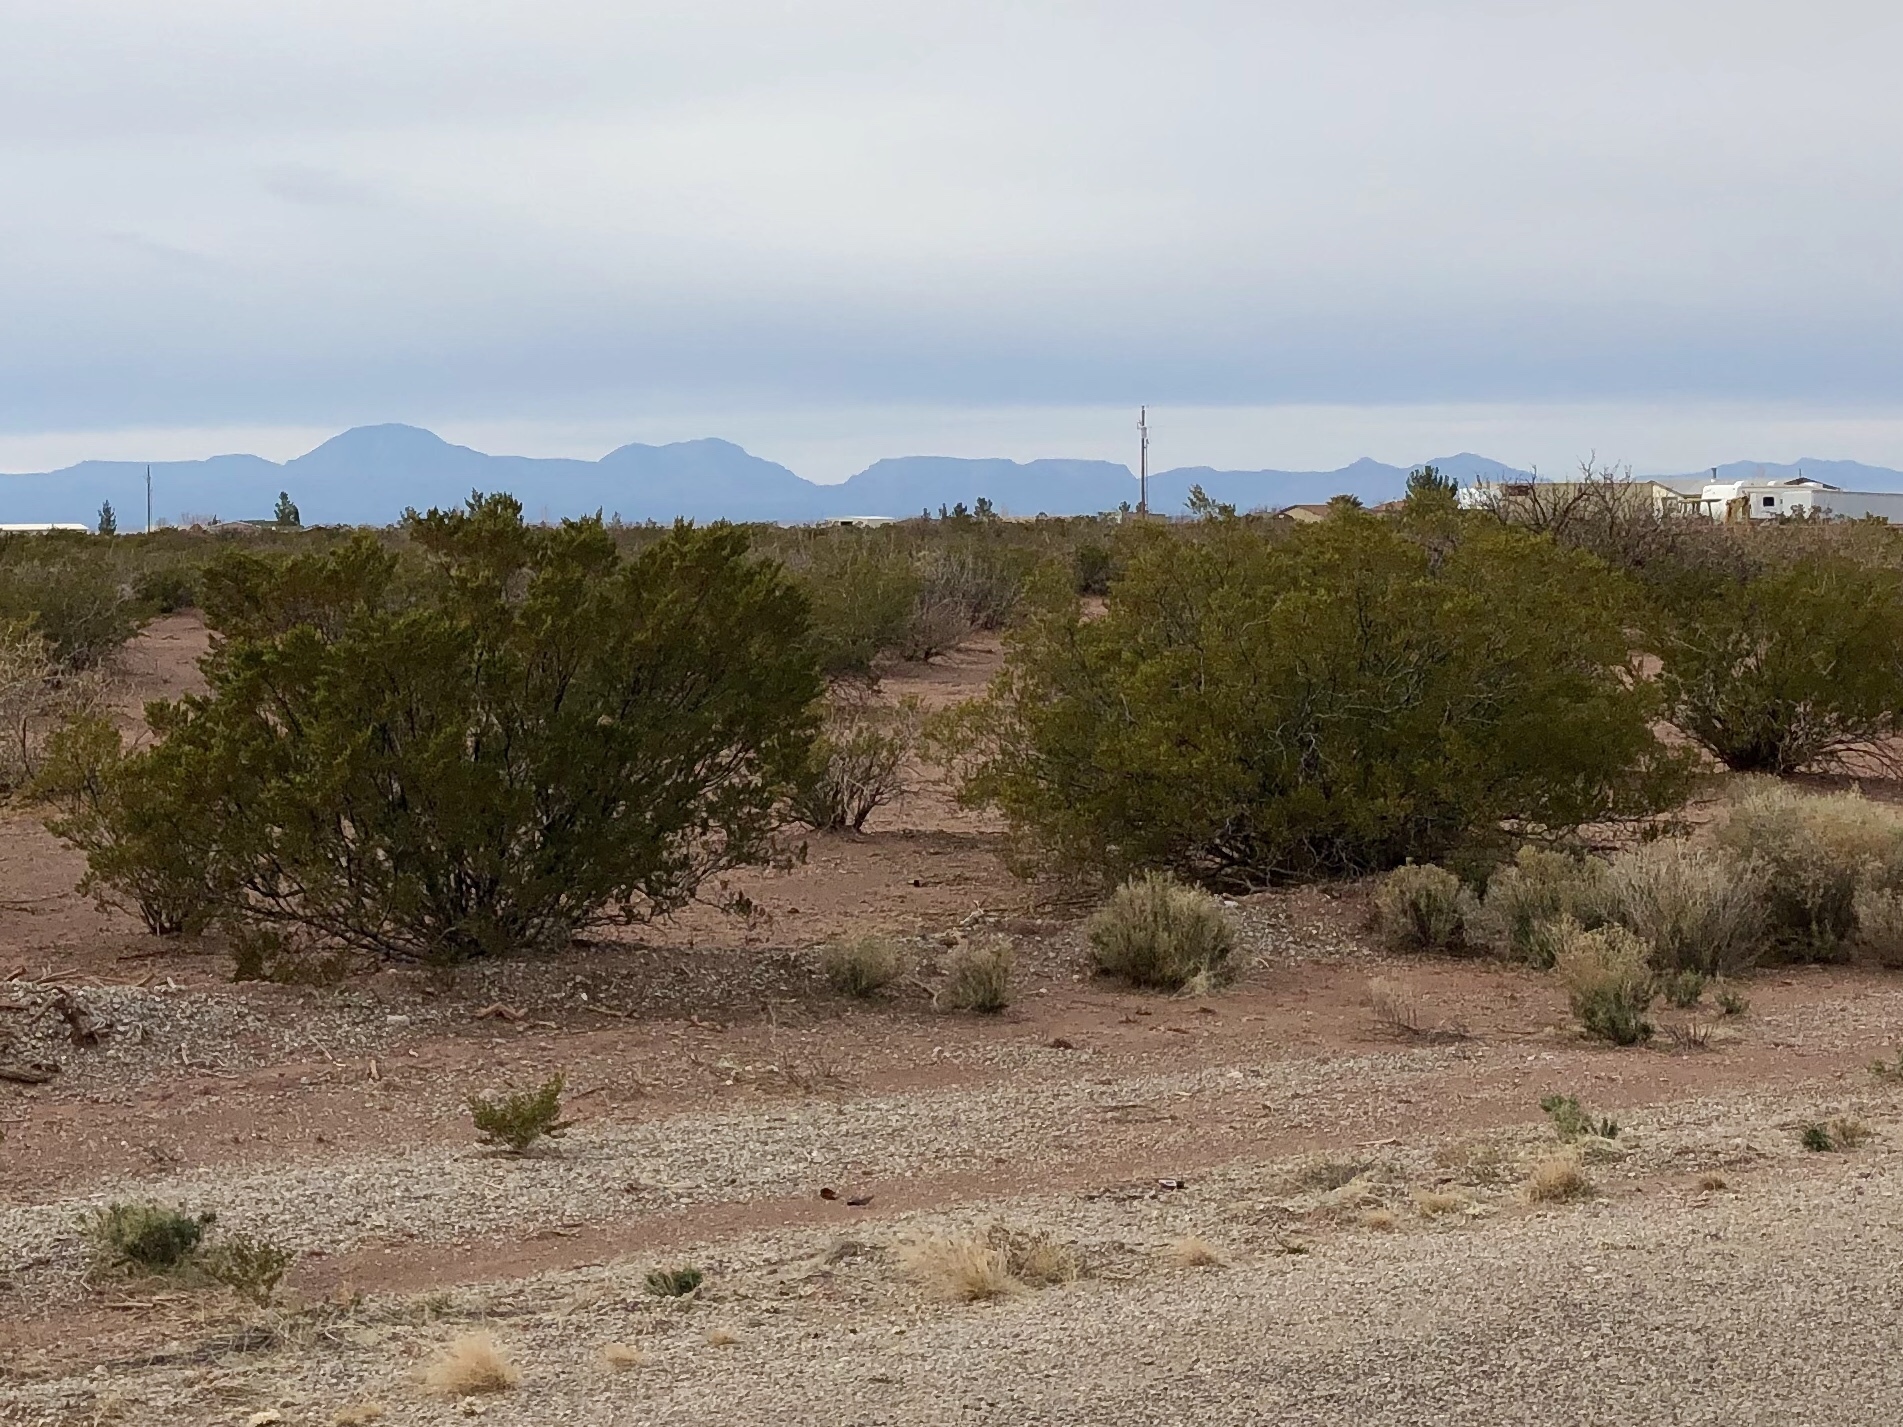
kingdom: Plantae
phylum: Tracheophyta
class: Magnoliopsida
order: Zygophyllales
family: Zygophyllaceae
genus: Larrea
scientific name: Larrea tridentata
